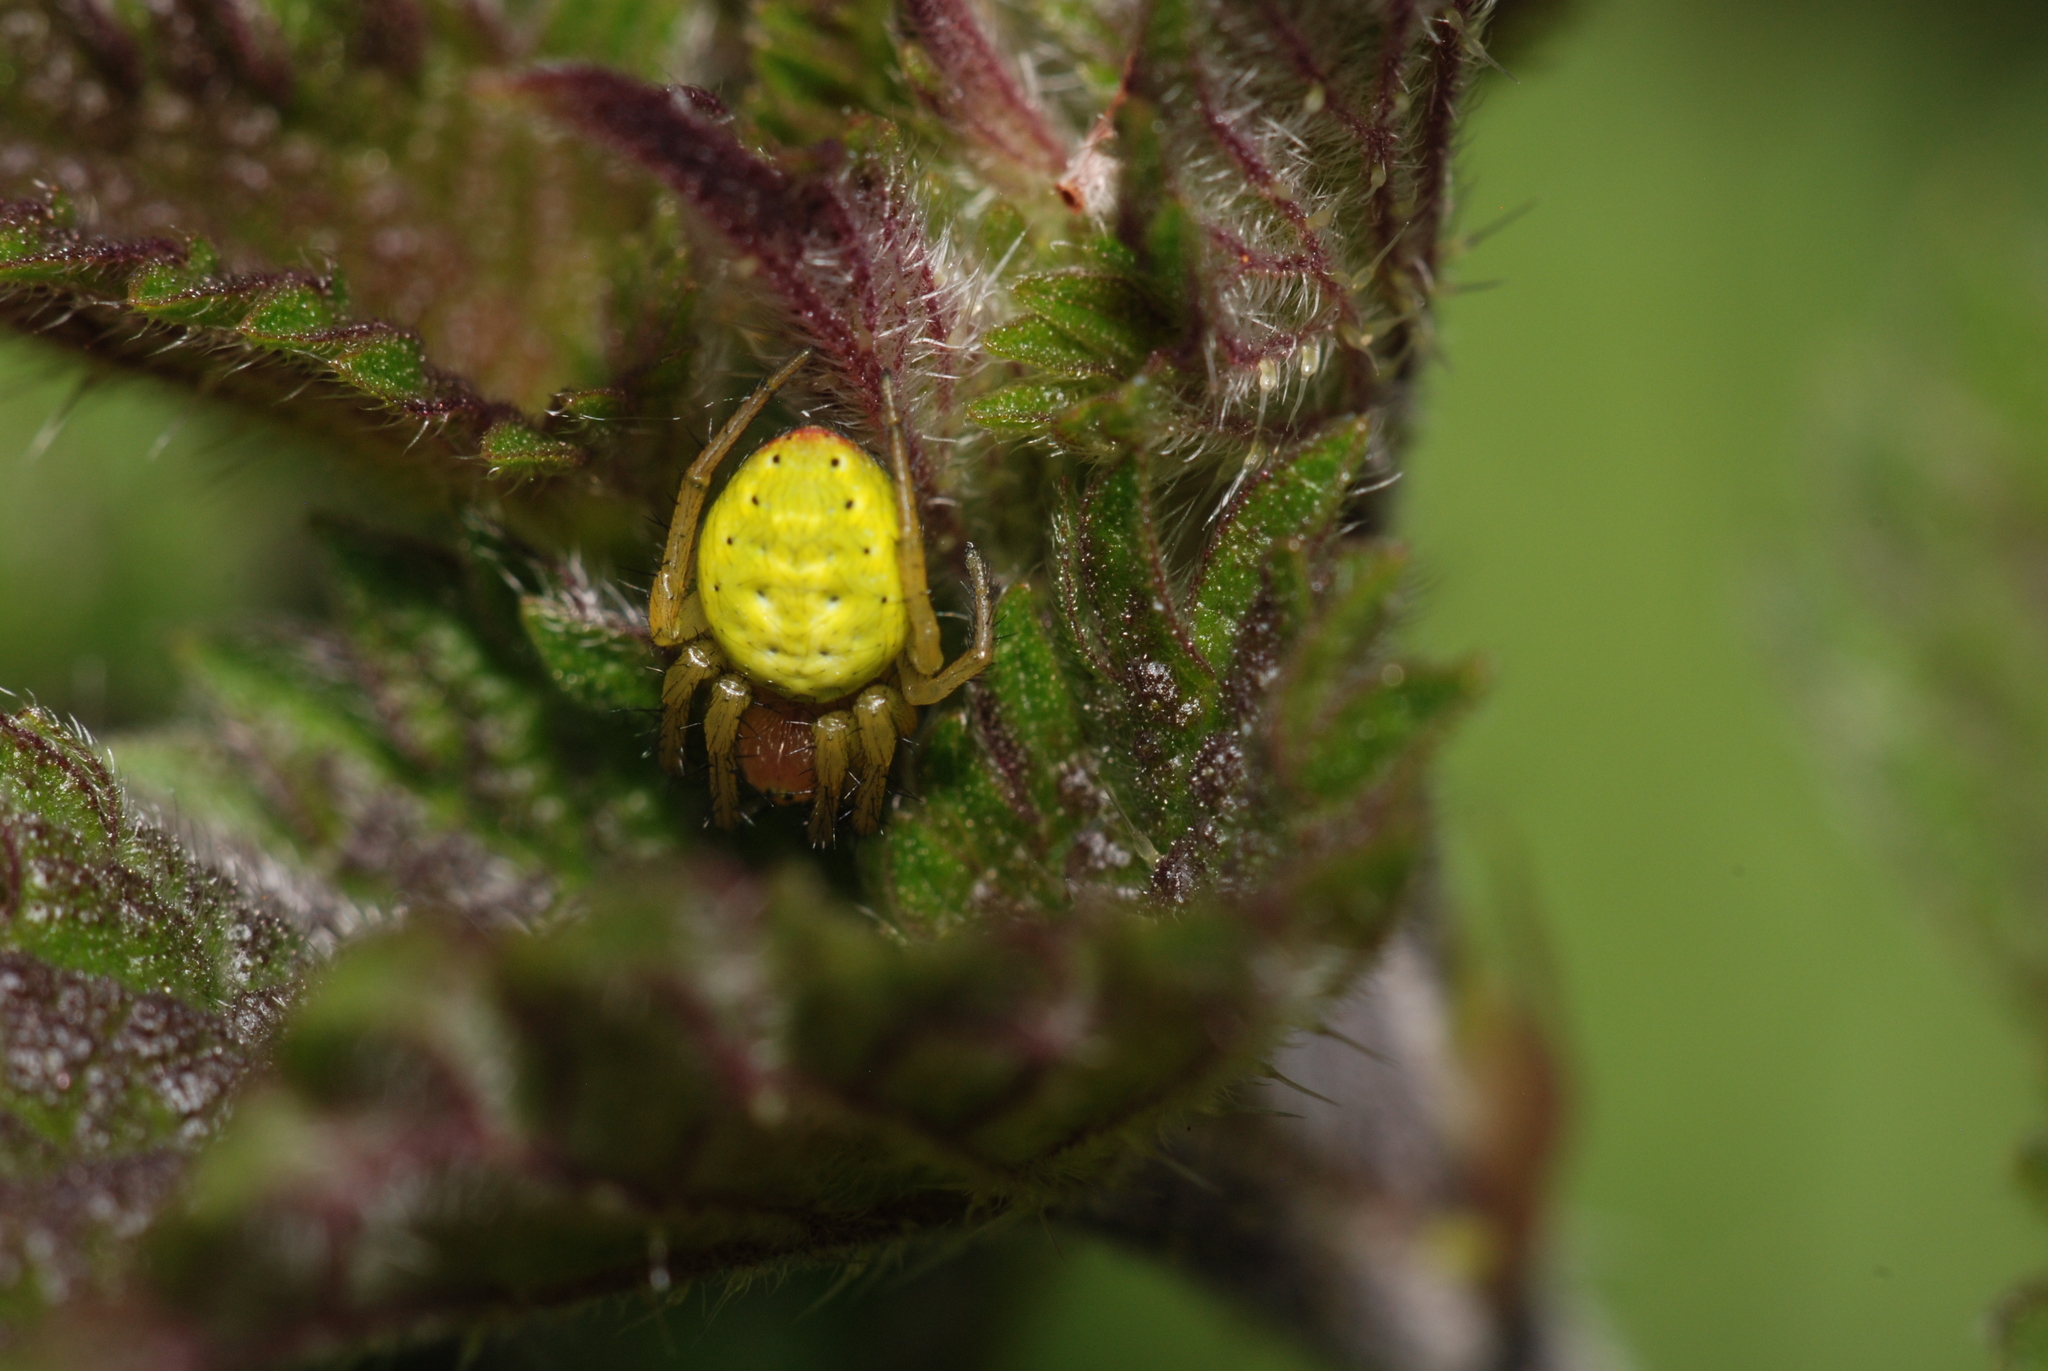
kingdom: Animalia
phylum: Arthropoda
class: Arachnida
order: Araneae
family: Araneidae
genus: Araniella
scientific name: Araniella cucurbitina
